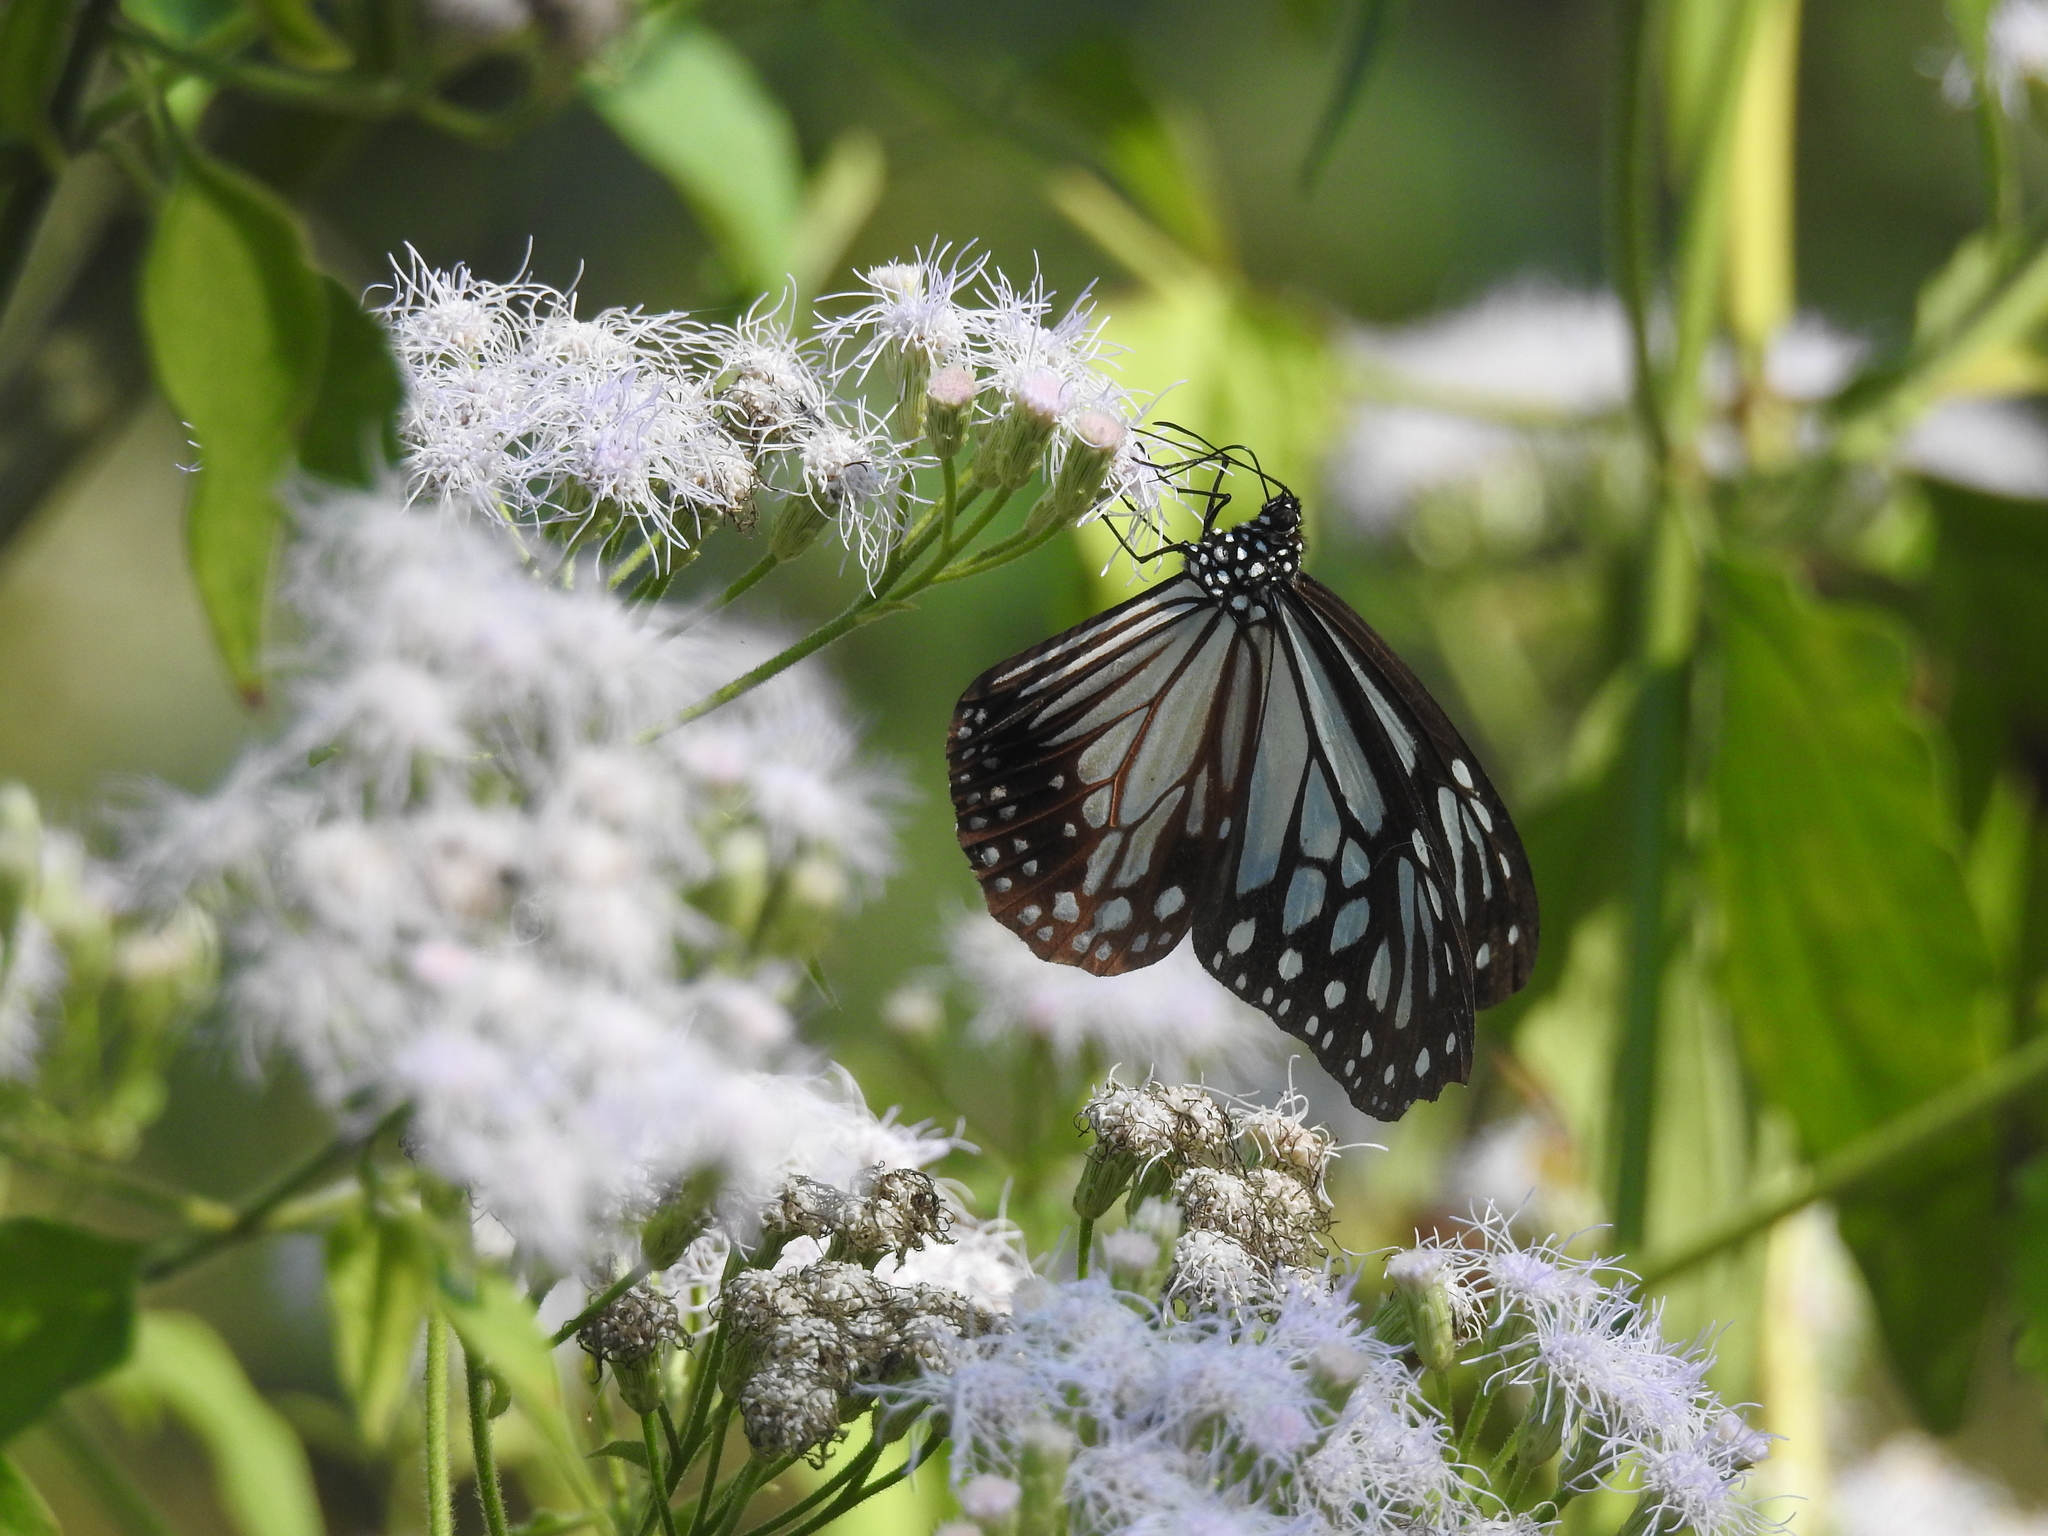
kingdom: Animalia
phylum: Arthropoda
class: Insecta
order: Lepidoptera
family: Nymphalidae
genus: Parantica
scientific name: Parantica melaneus
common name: Chocolate tiger
